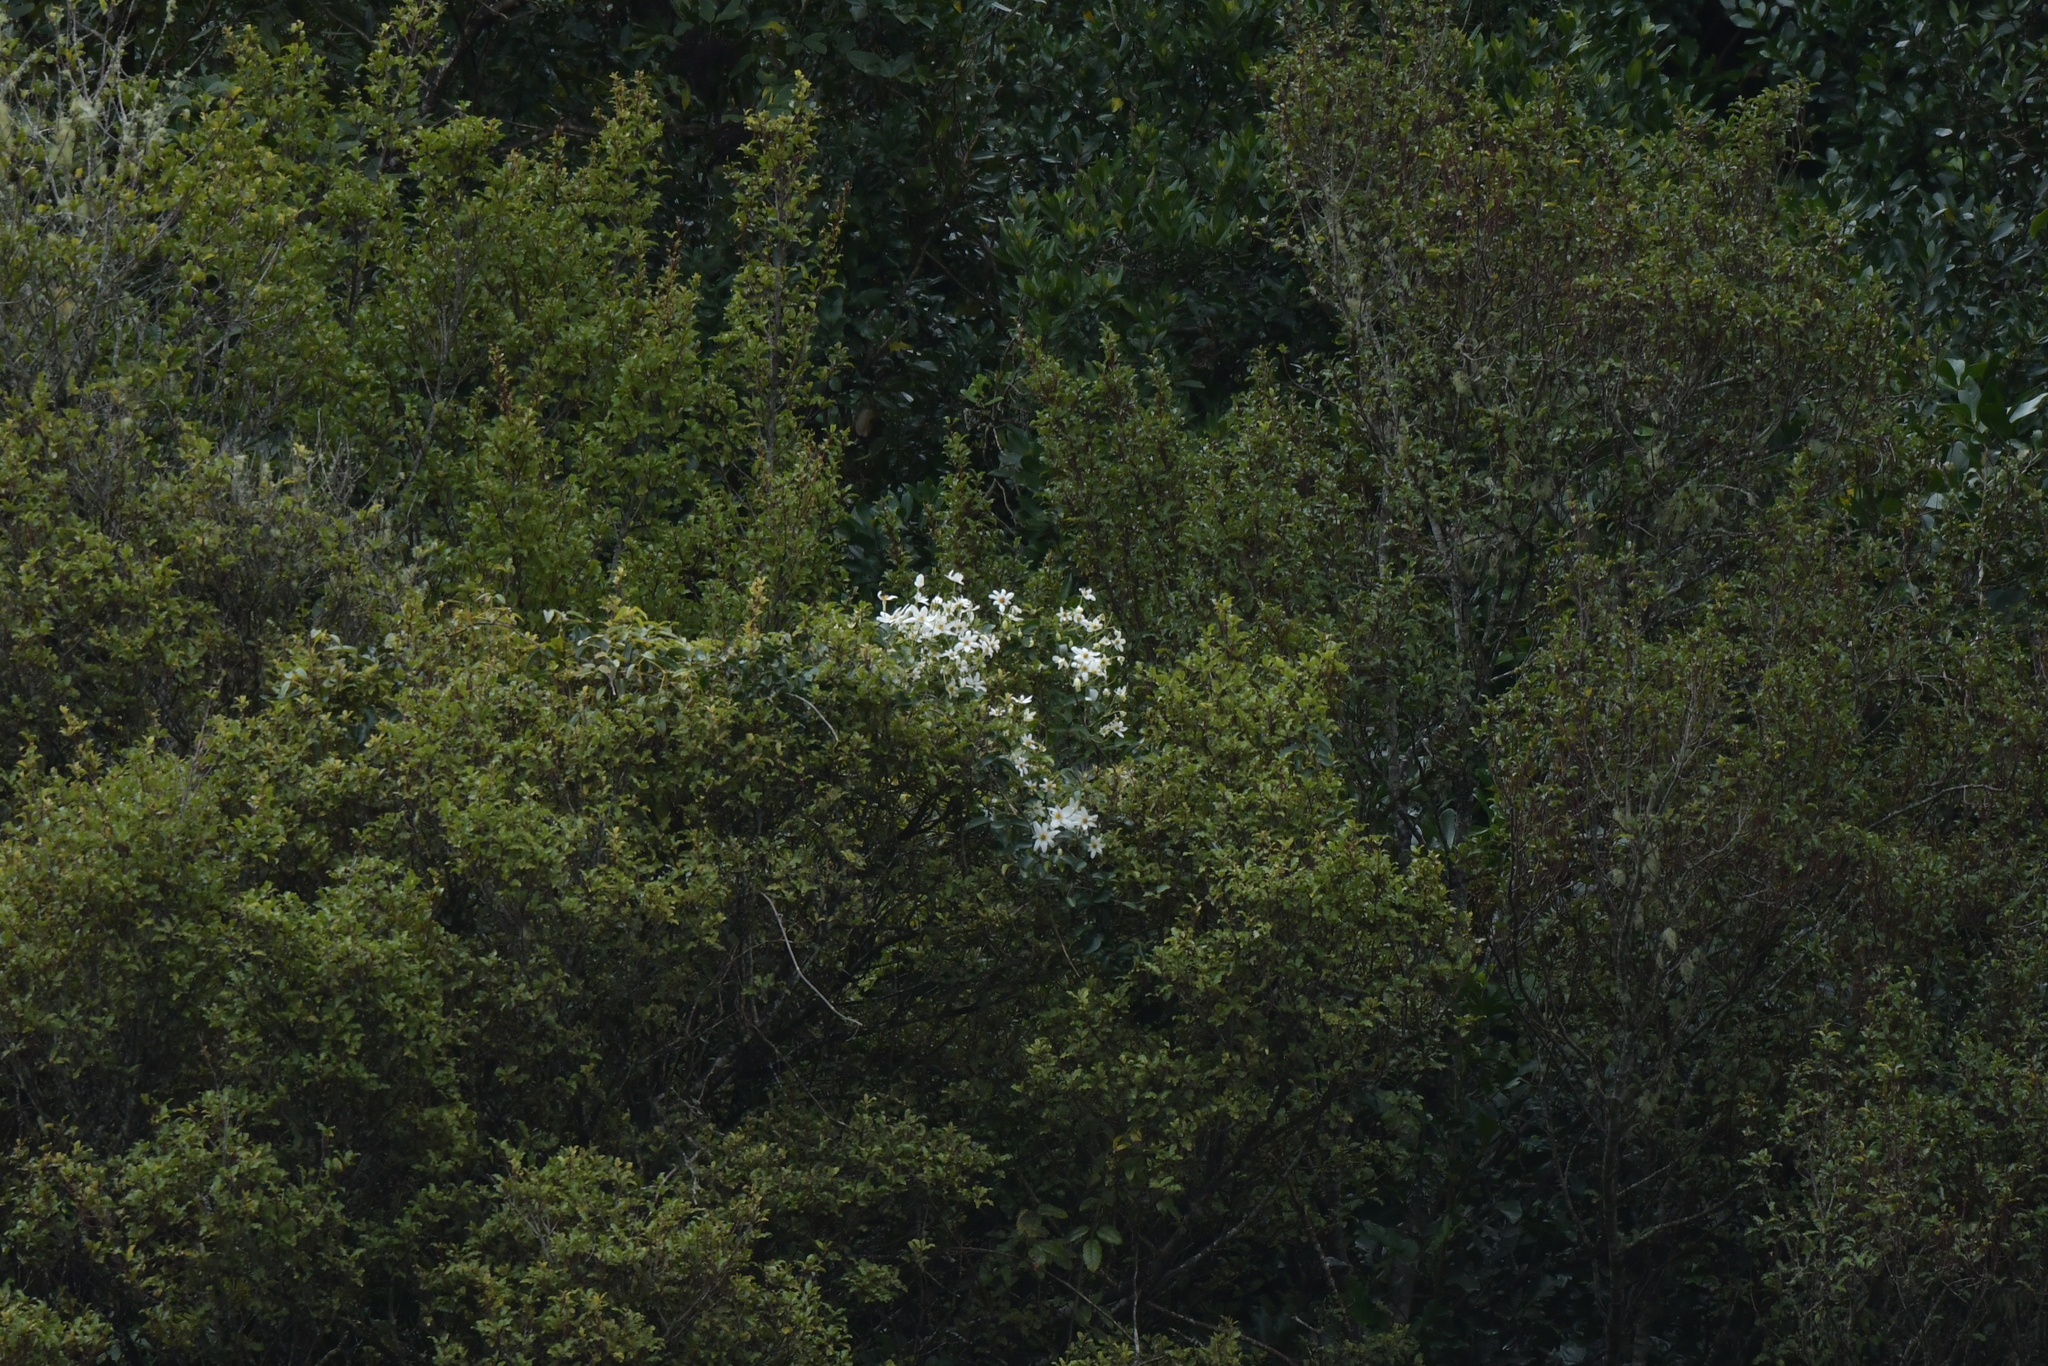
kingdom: Plantae
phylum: Tracheophyta
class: Magnoliopsida
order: Ranunculales
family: Ranunculaceae
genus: Clematis
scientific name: Clematis paniculata
